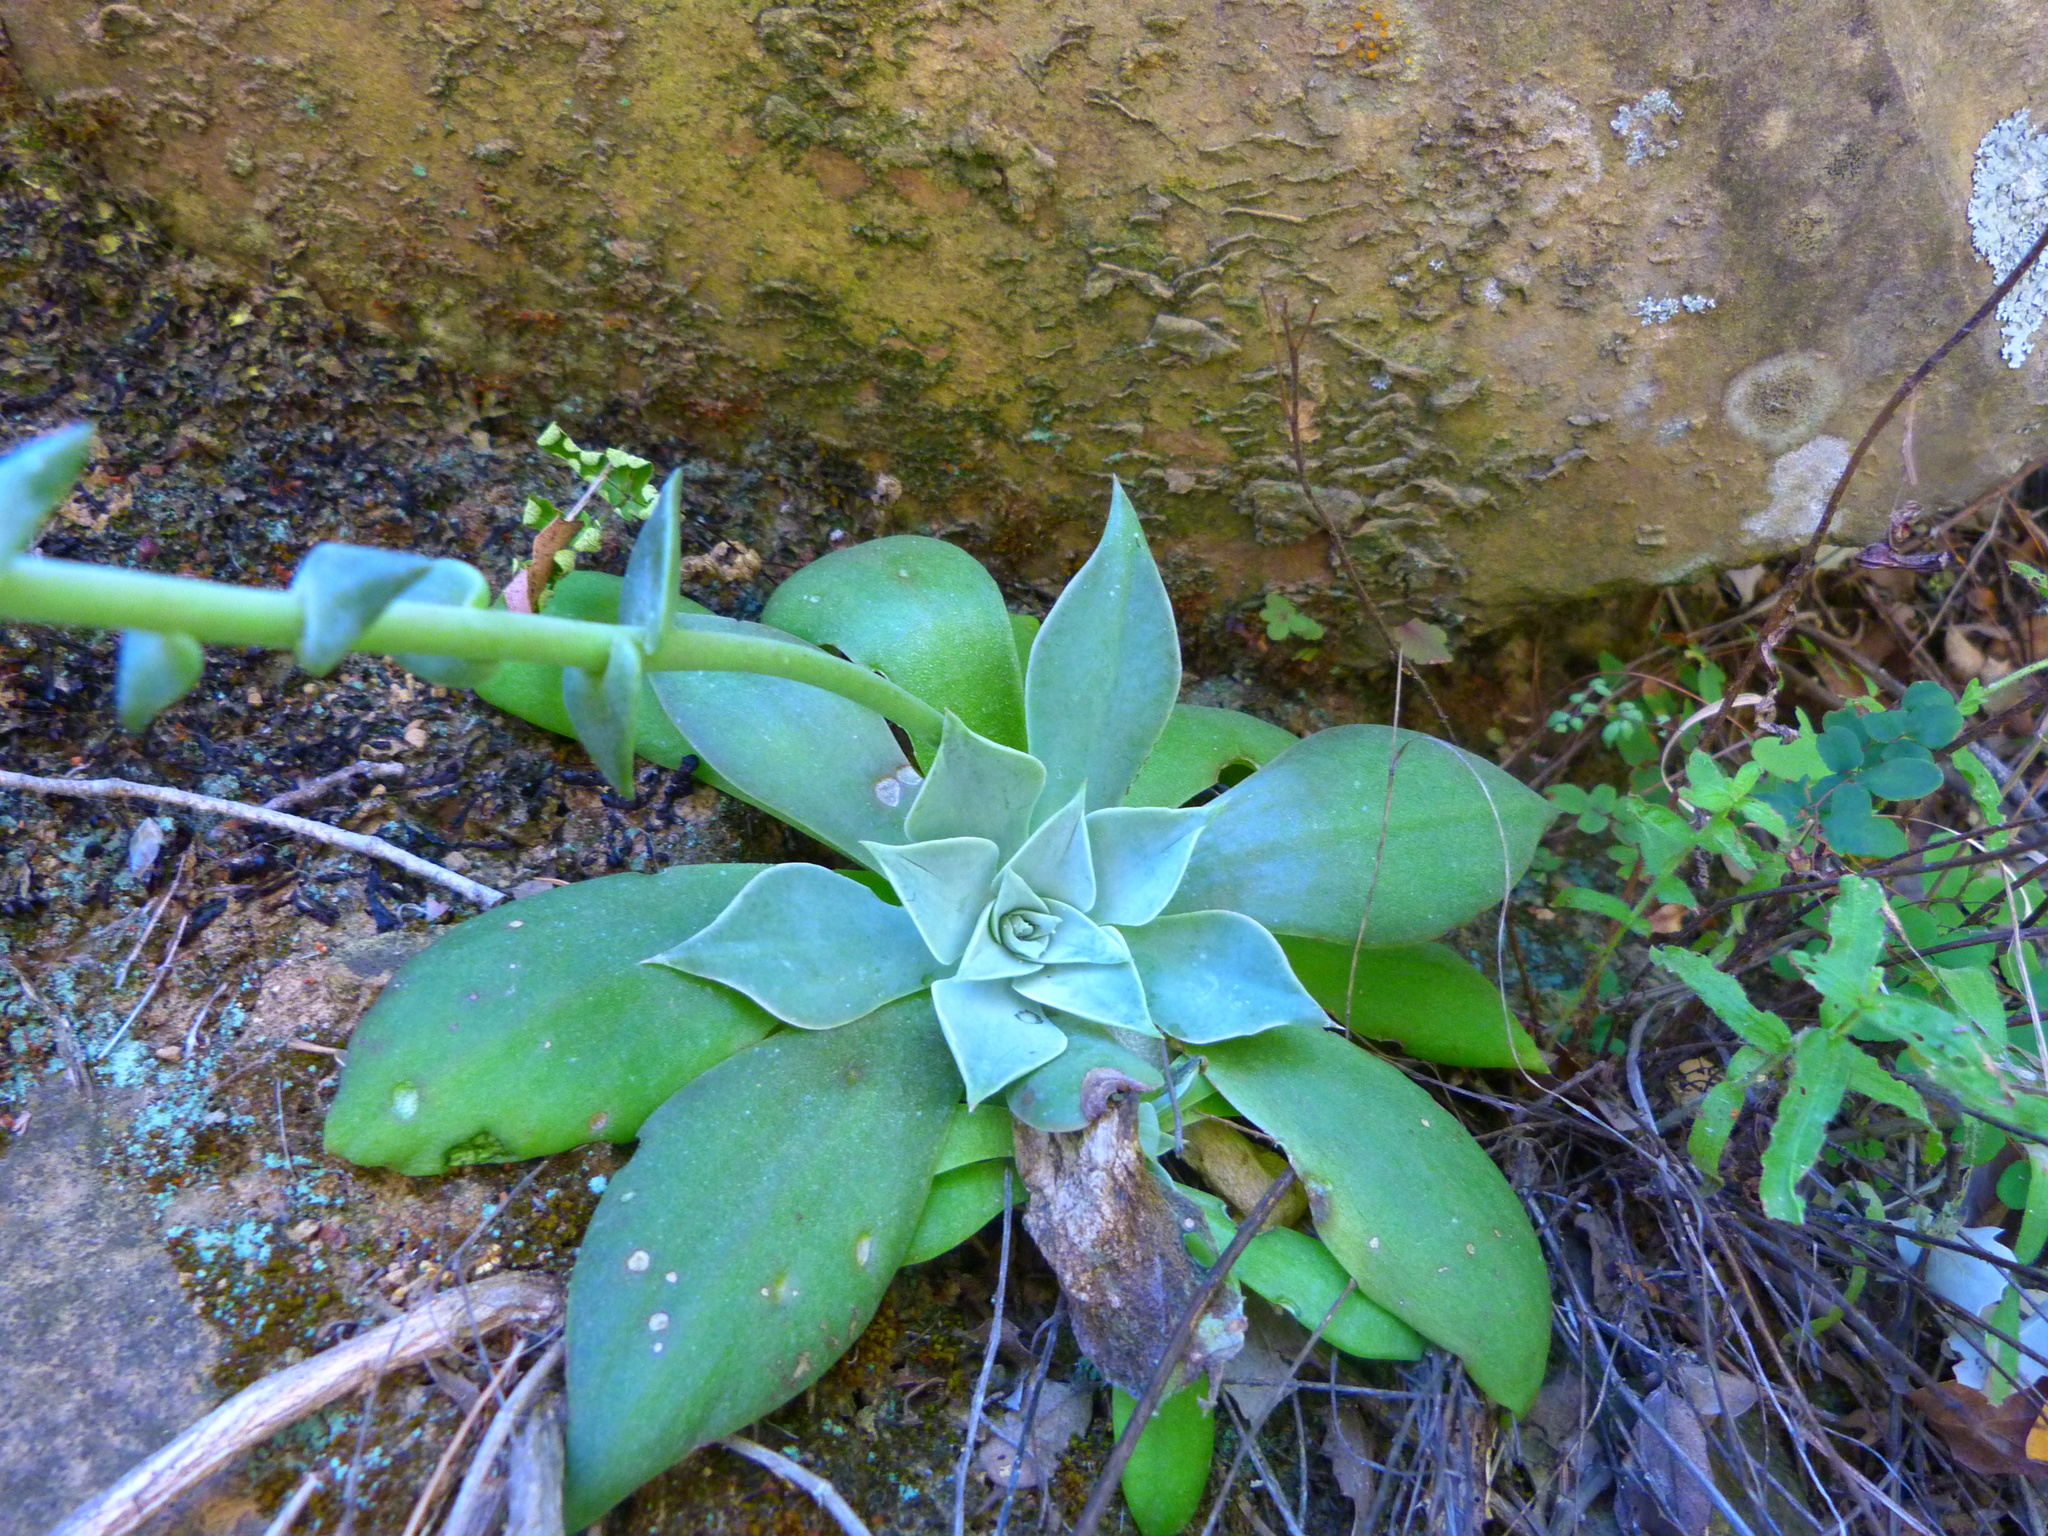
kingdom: Plantae
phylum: Tracheophyta
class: Magnoliopsida
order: Saxifragales
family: Crassulaceae
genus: Dudleya
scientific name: Dudleya cymosa
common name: Canyon dudleya
